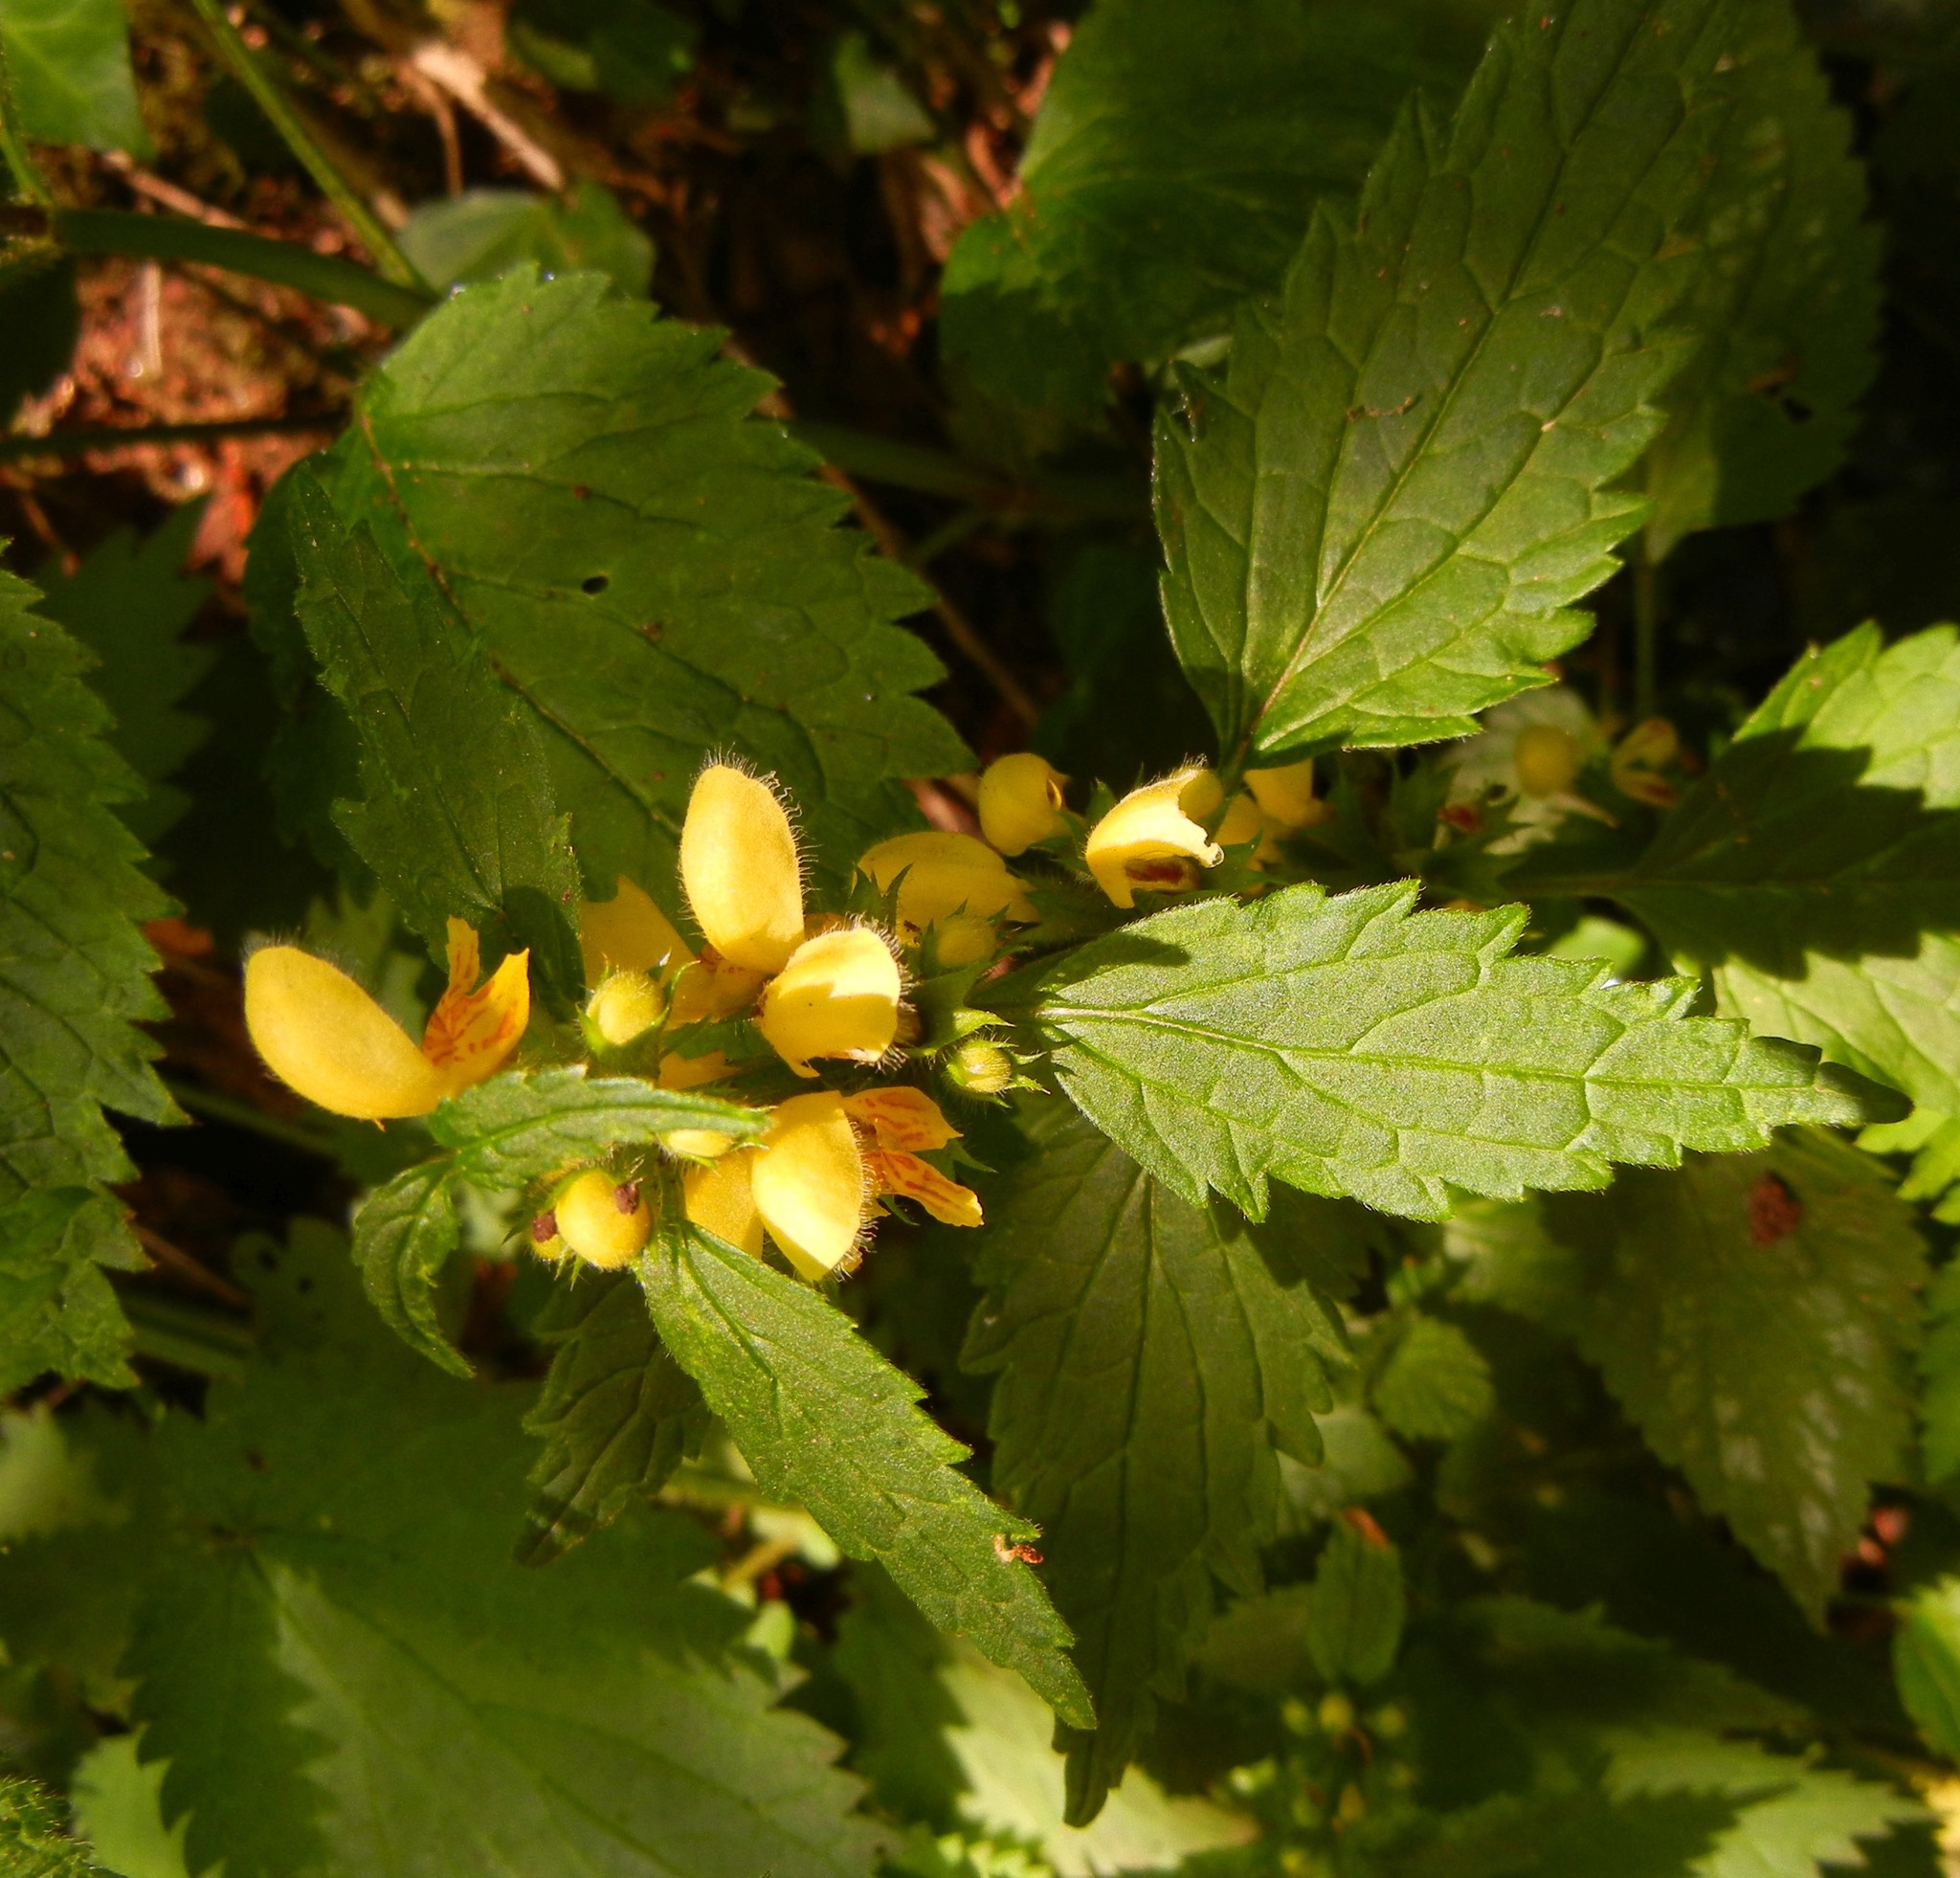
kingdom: Plantae
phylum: Tracheophyta
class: Magnoliopsida
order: Lamiales
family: Lamiaceae
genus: Lamium
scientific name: Lamium galeobdolon
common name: Yellow archangel
